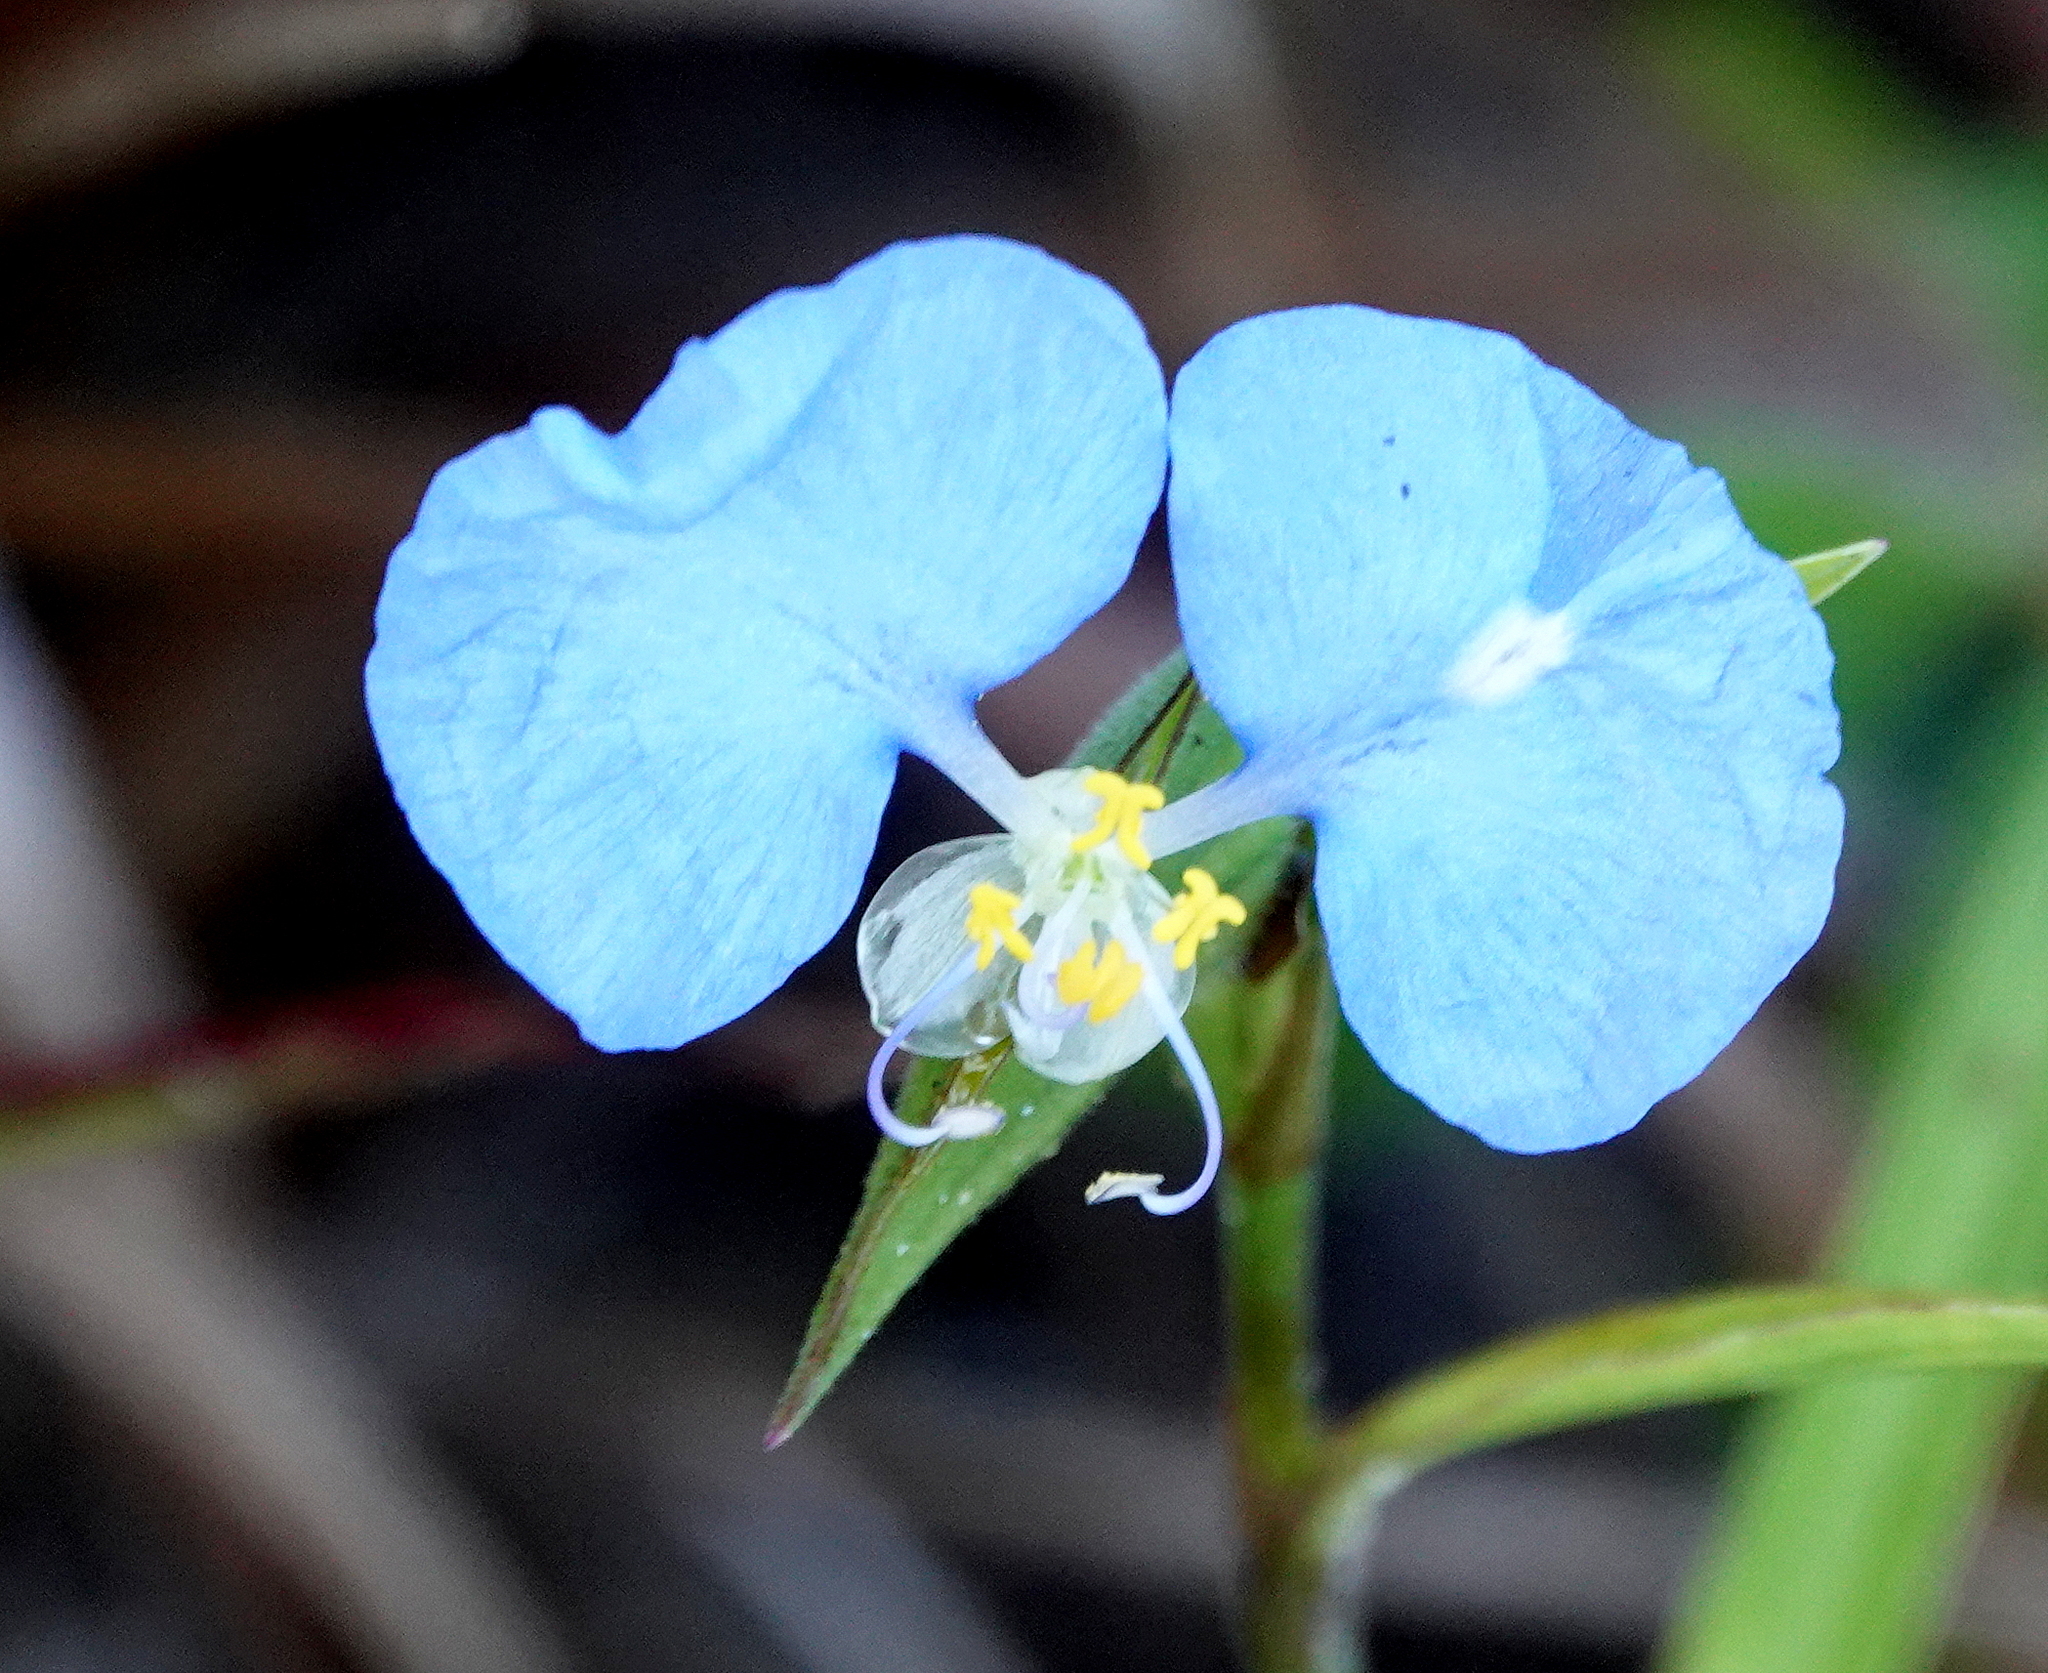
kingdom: Plantae
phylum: Tracheophyta
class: Liliopsida
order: Commelinales
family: Commelinaceae
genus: Commelina
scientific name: Commelina erecta
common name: Blousel blommetjie
